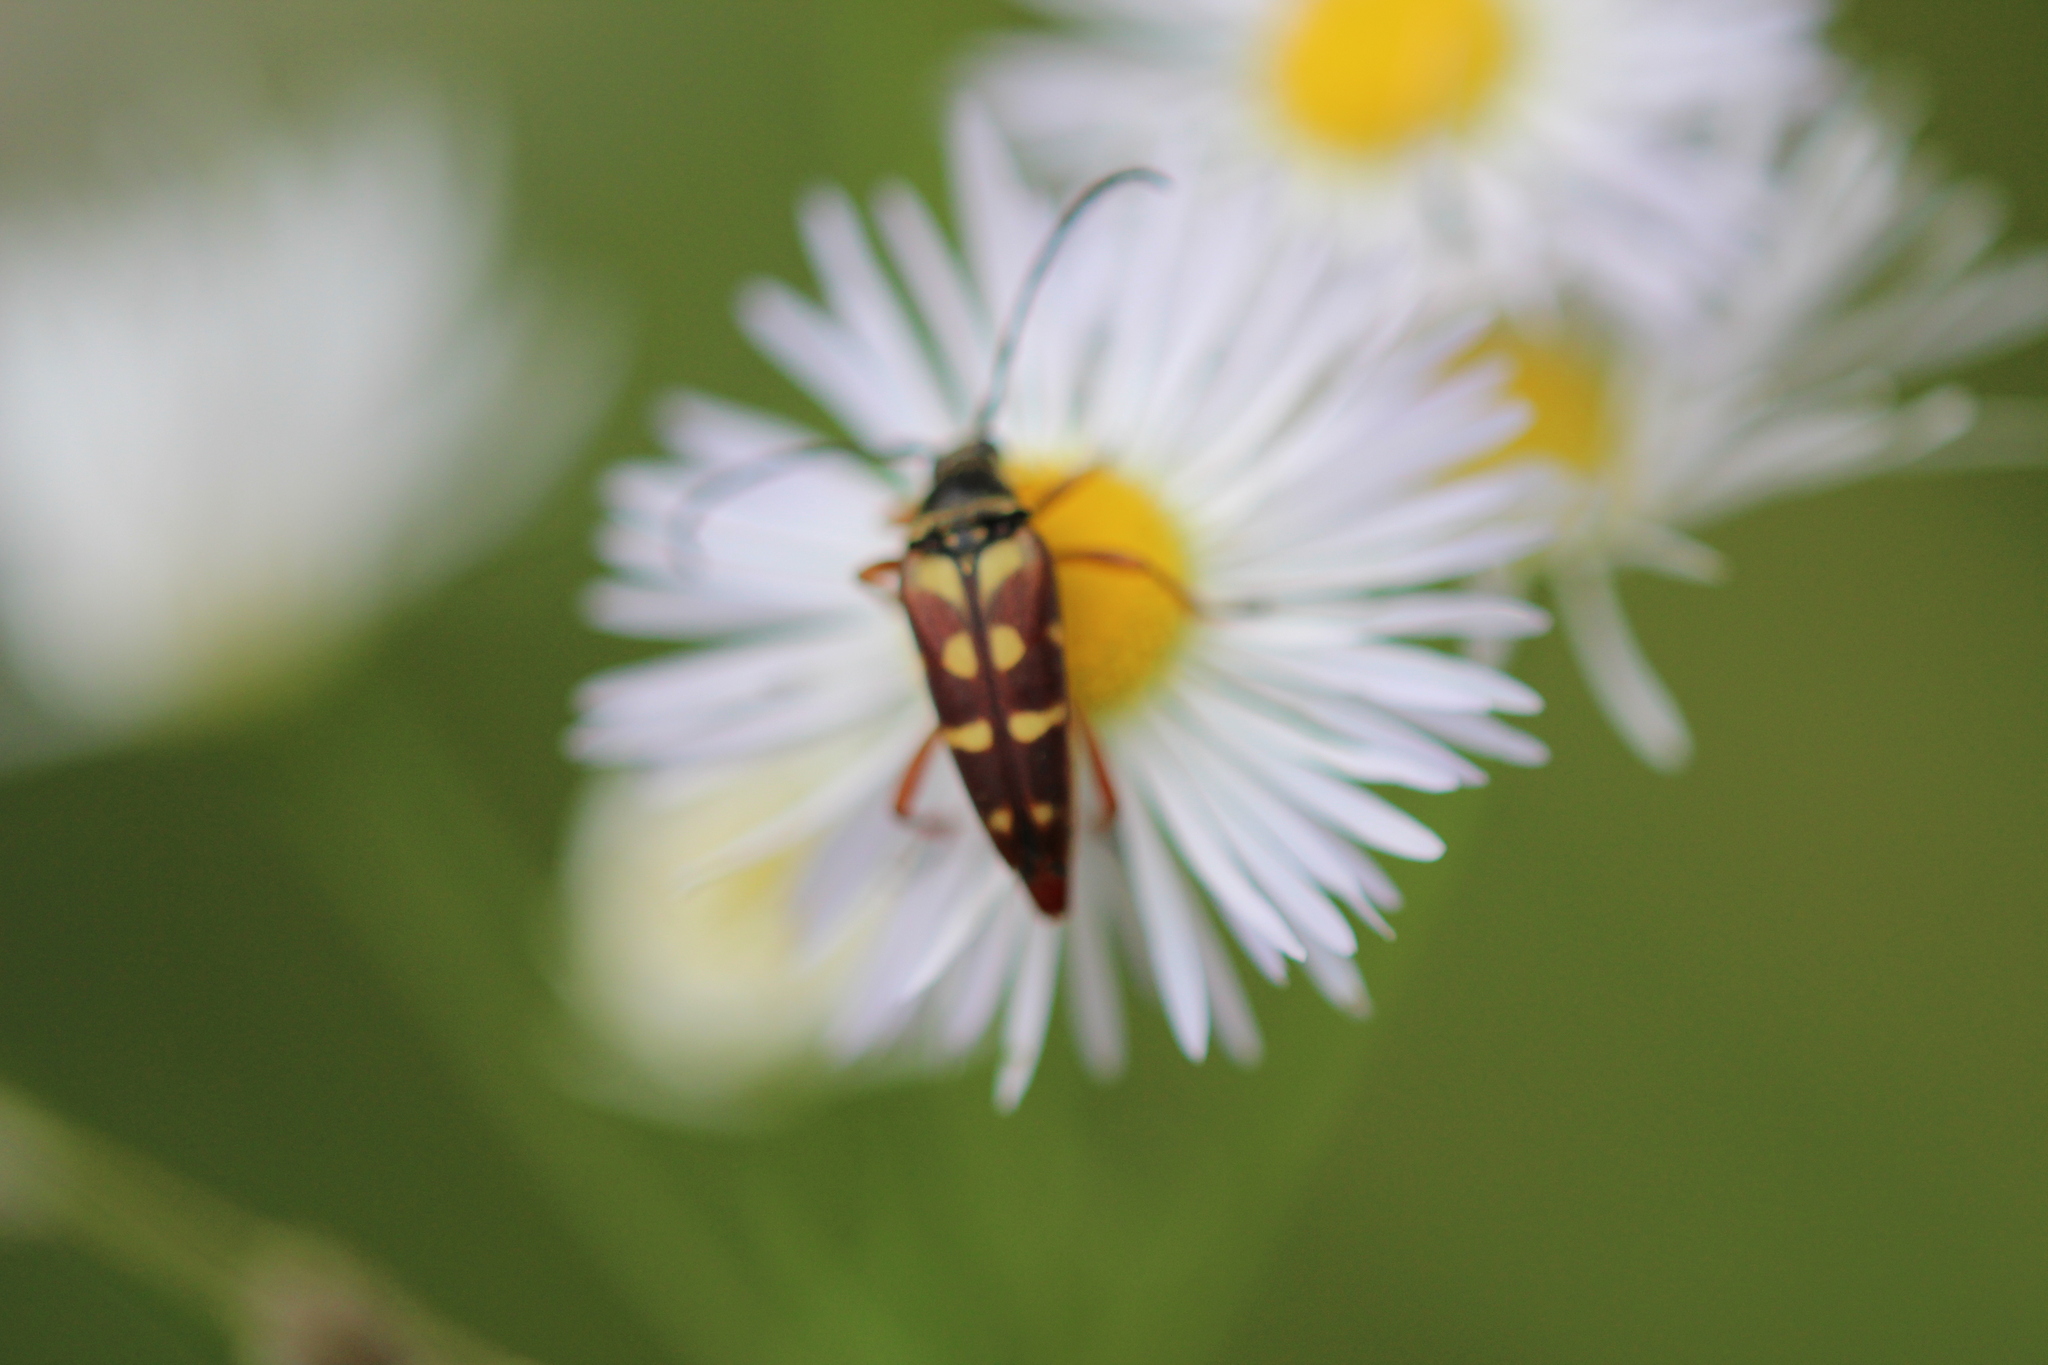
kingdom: Animalia
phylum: Arthropoda
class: Insecta
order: Coleoptera
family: Cerambycidae
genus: Typocerus
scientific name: Typocerus velutinus
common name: Banded longhorn beetle
